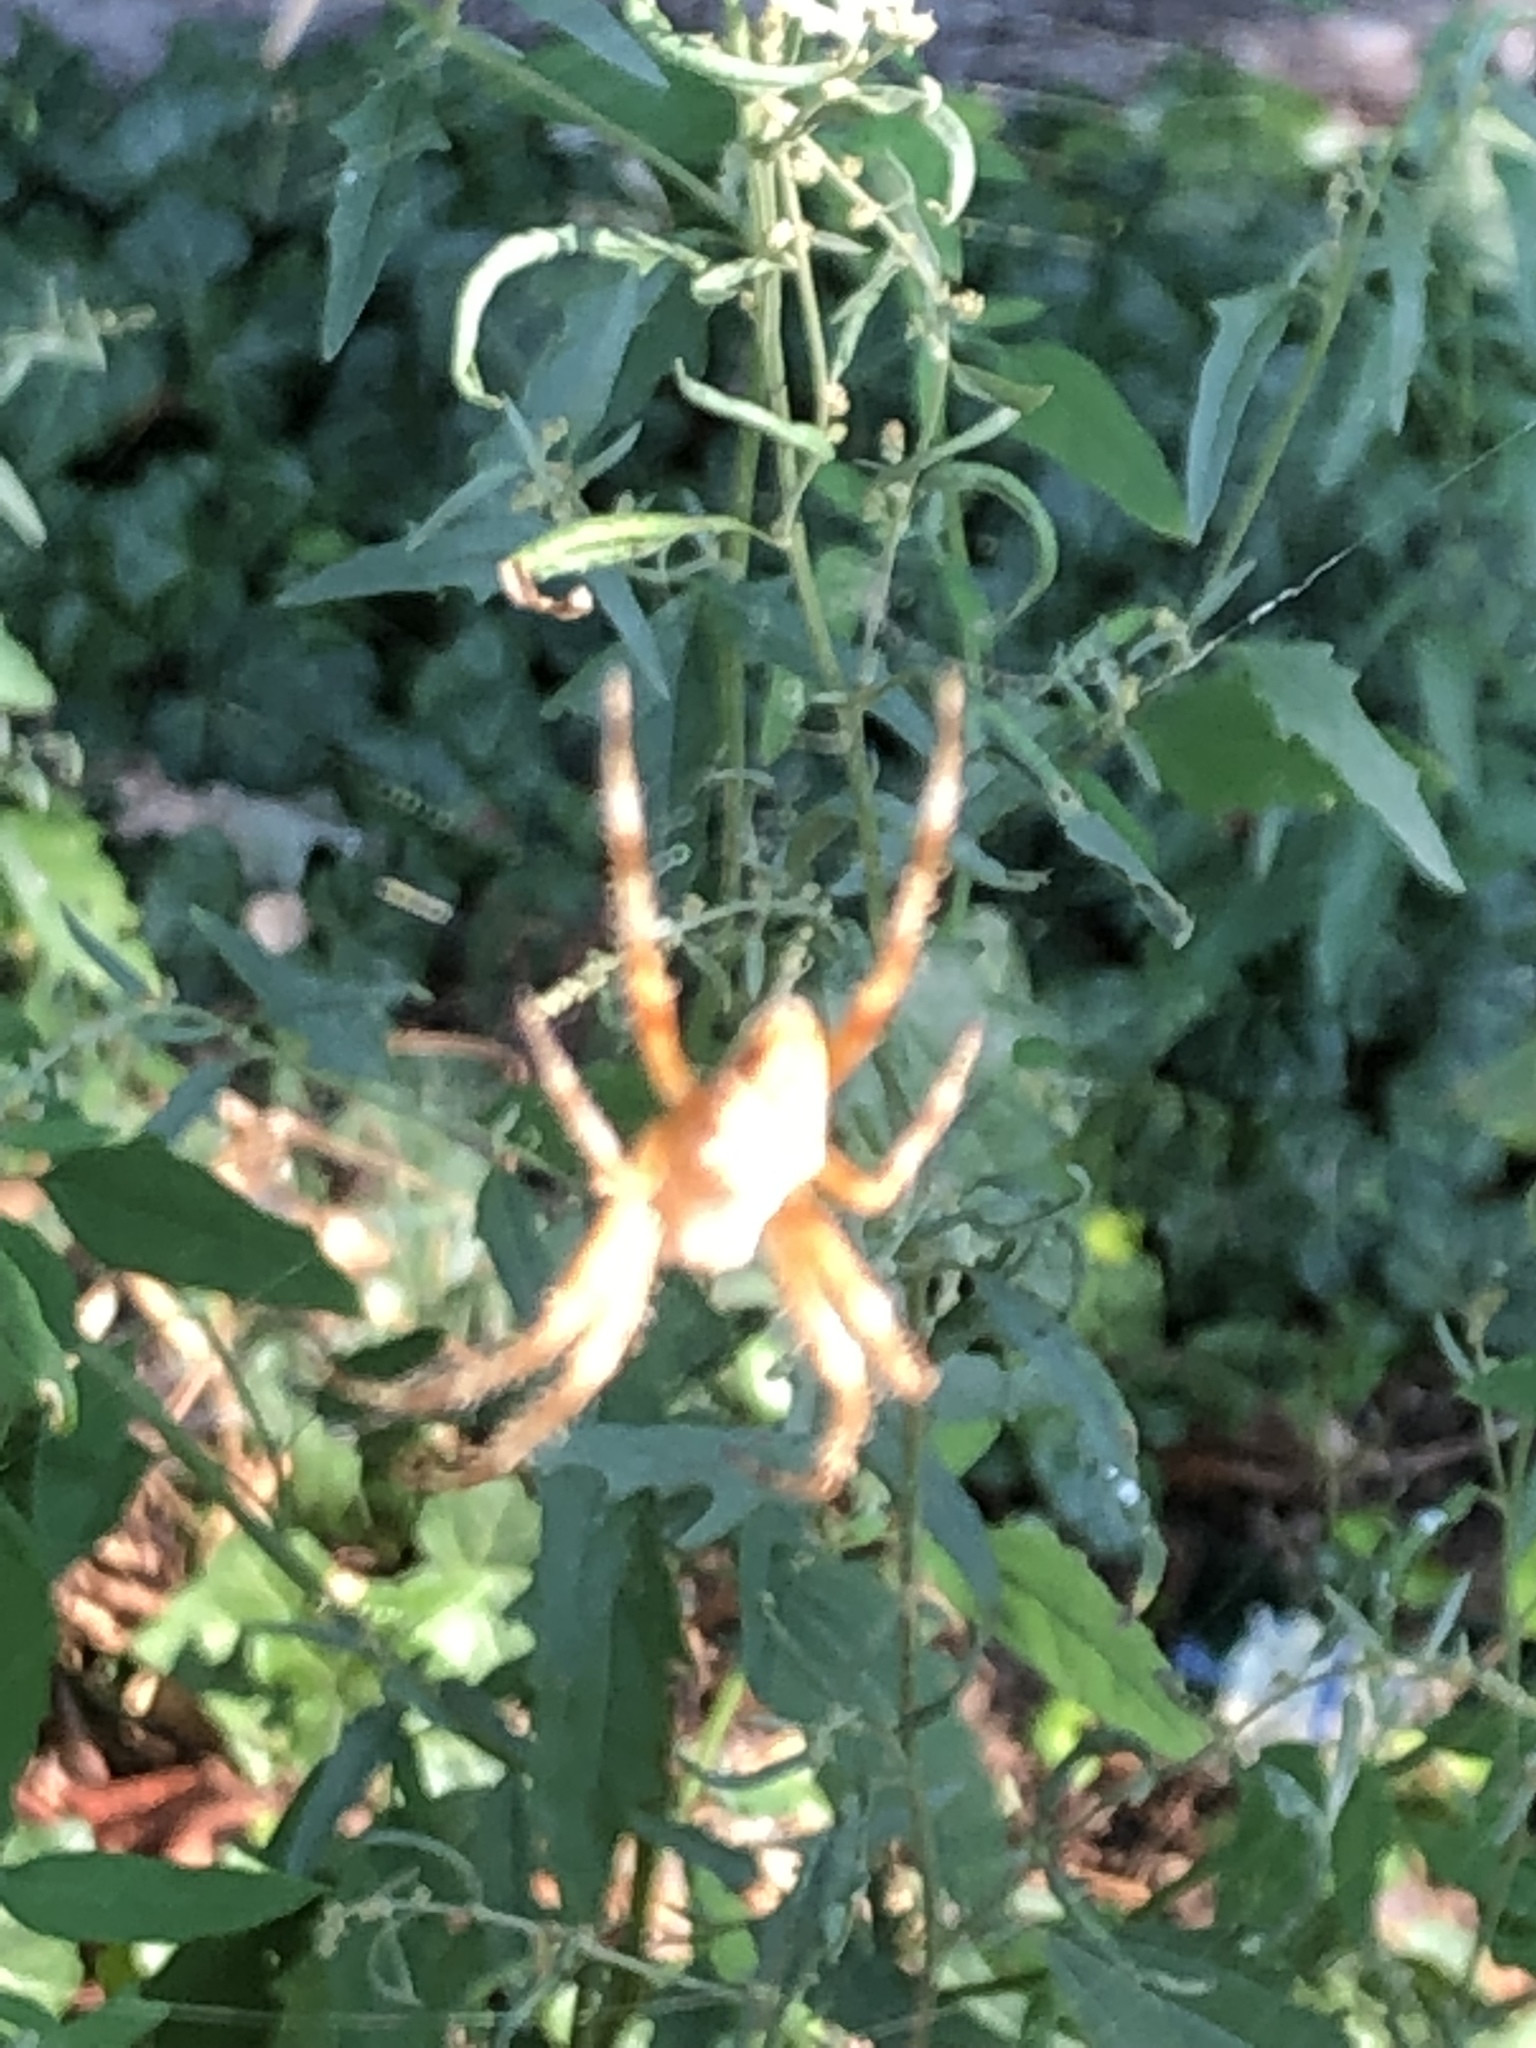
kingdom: Animalia
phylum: Arthropoda
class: Arachnida
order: Araneae
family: Araneidae
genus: Araneus
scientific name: Araneus diadematus
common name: Cross orbweaver
